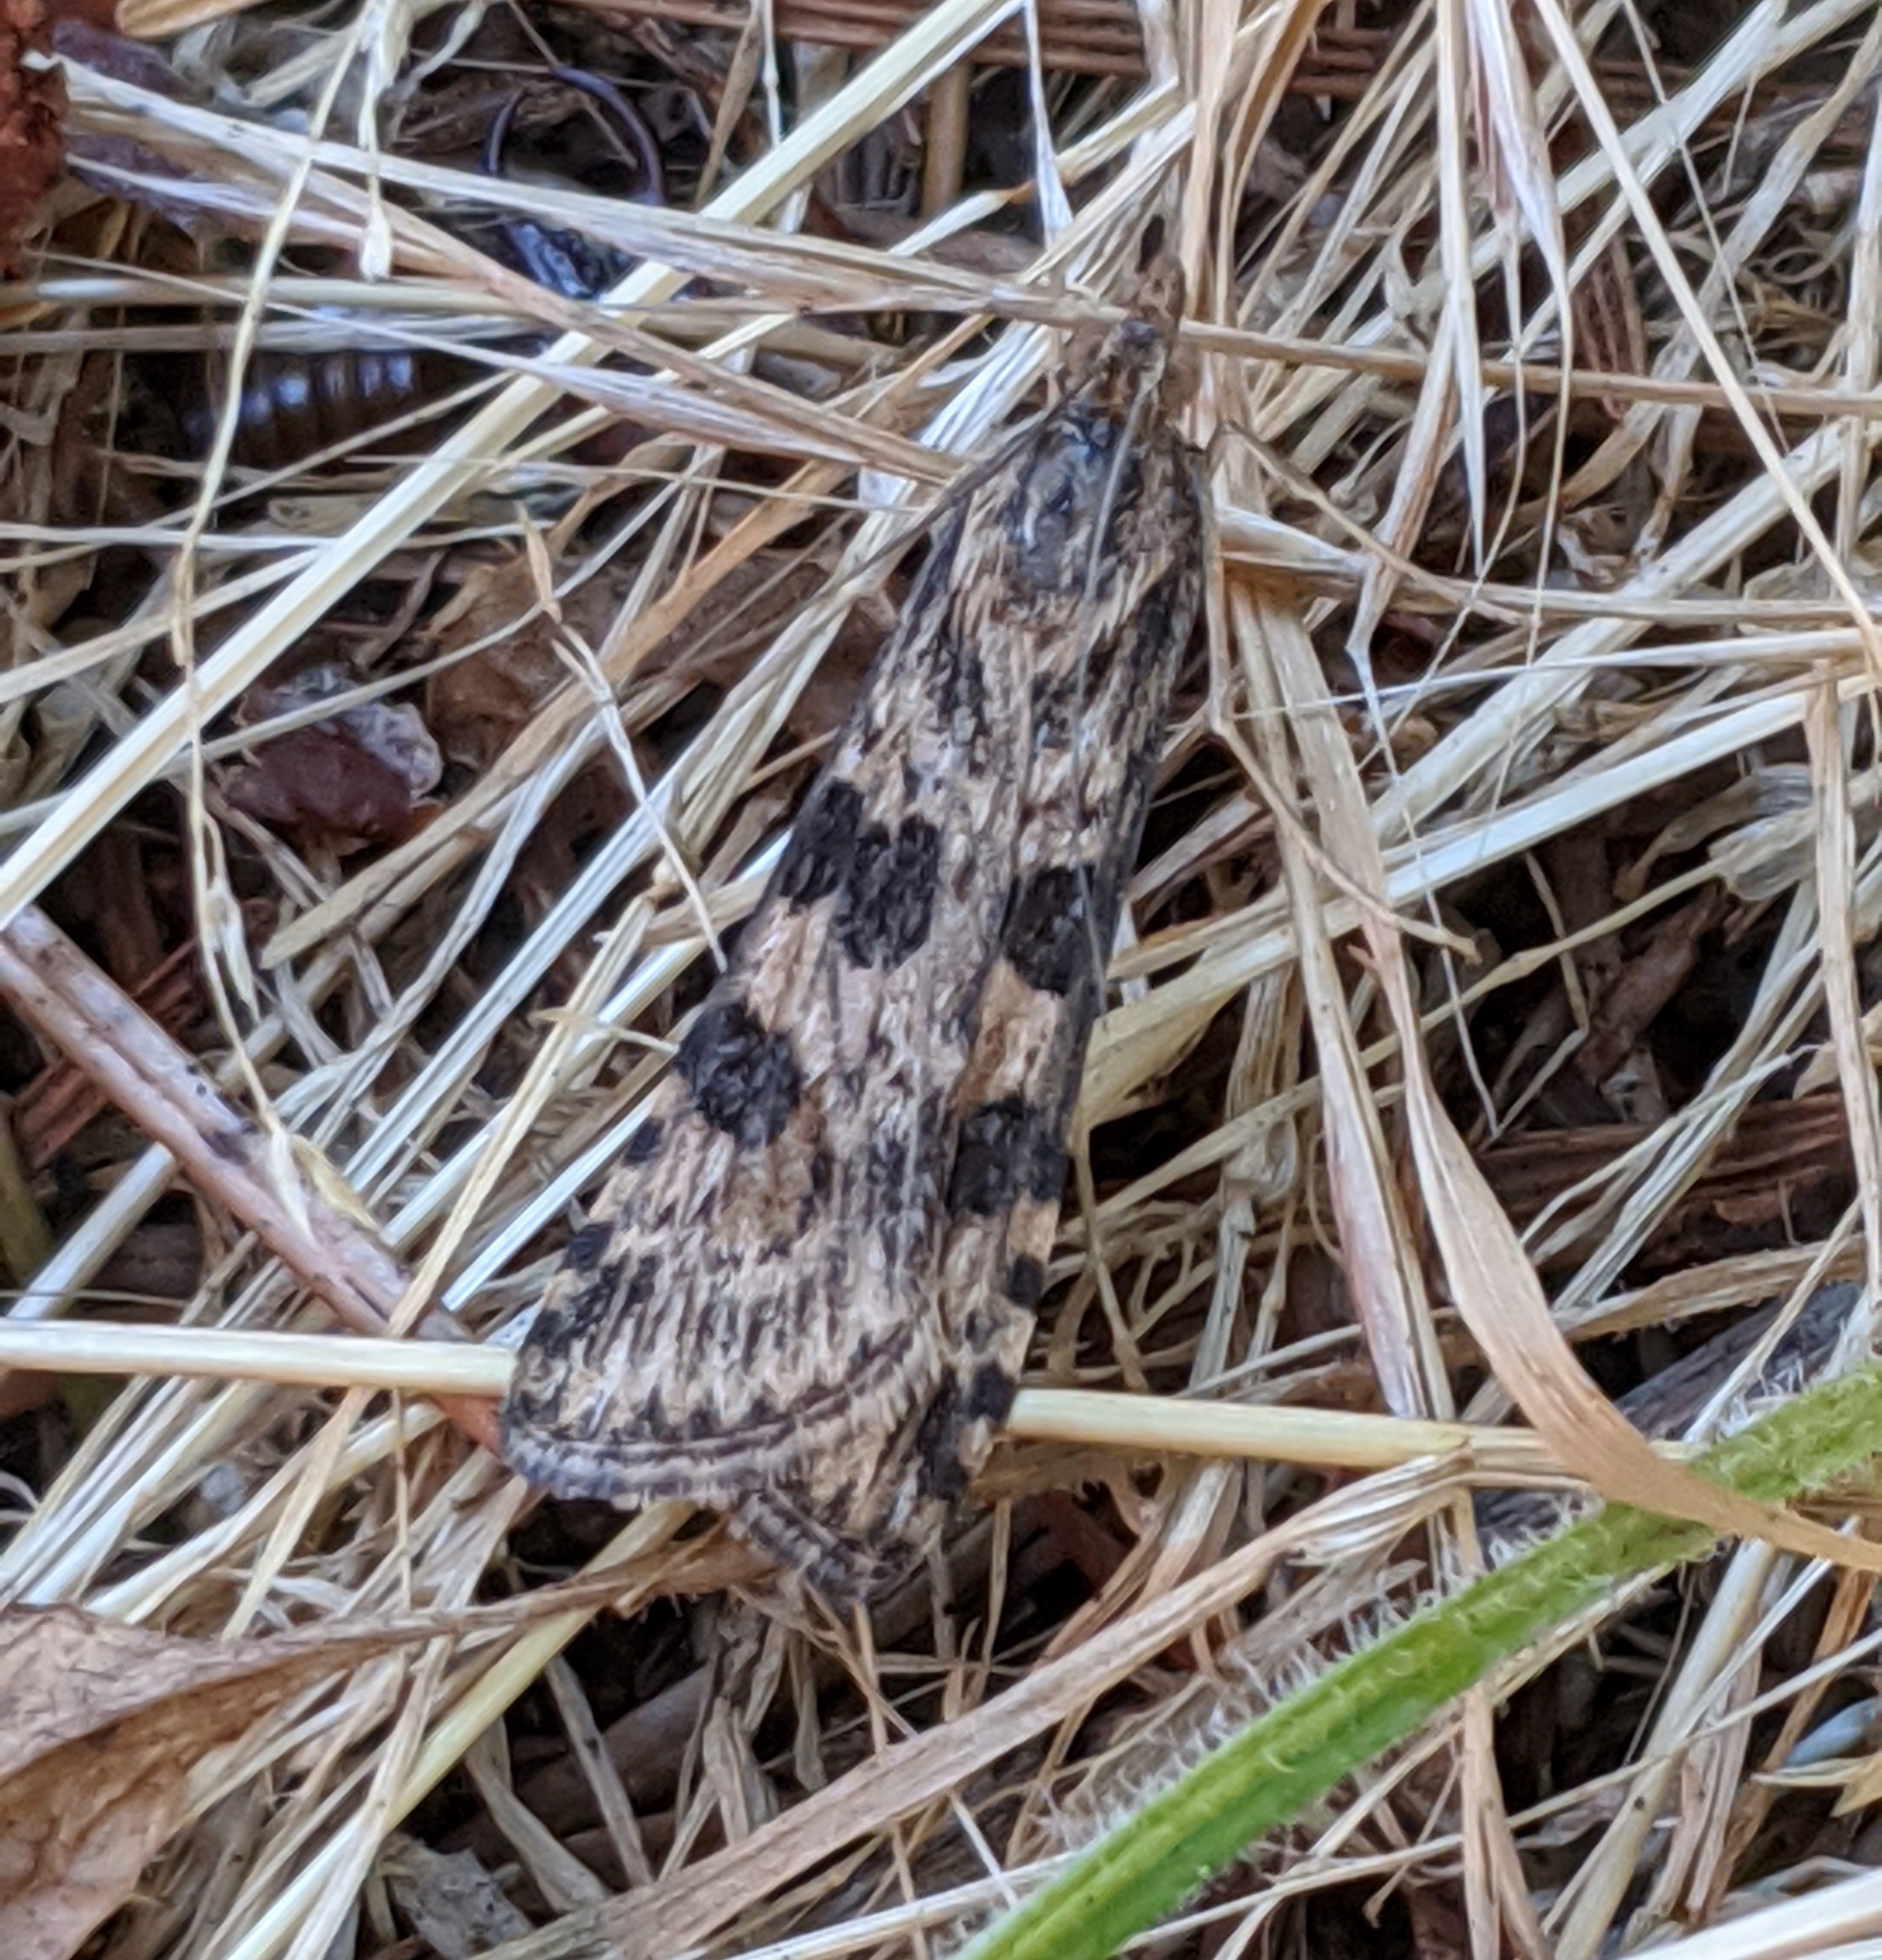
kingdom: Animalia
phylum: Arthropoda
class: Insecta
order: Lepidoptera
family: Crambidae
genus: Nomophila
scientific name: Nomophila nearctica
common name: American rush veneer
